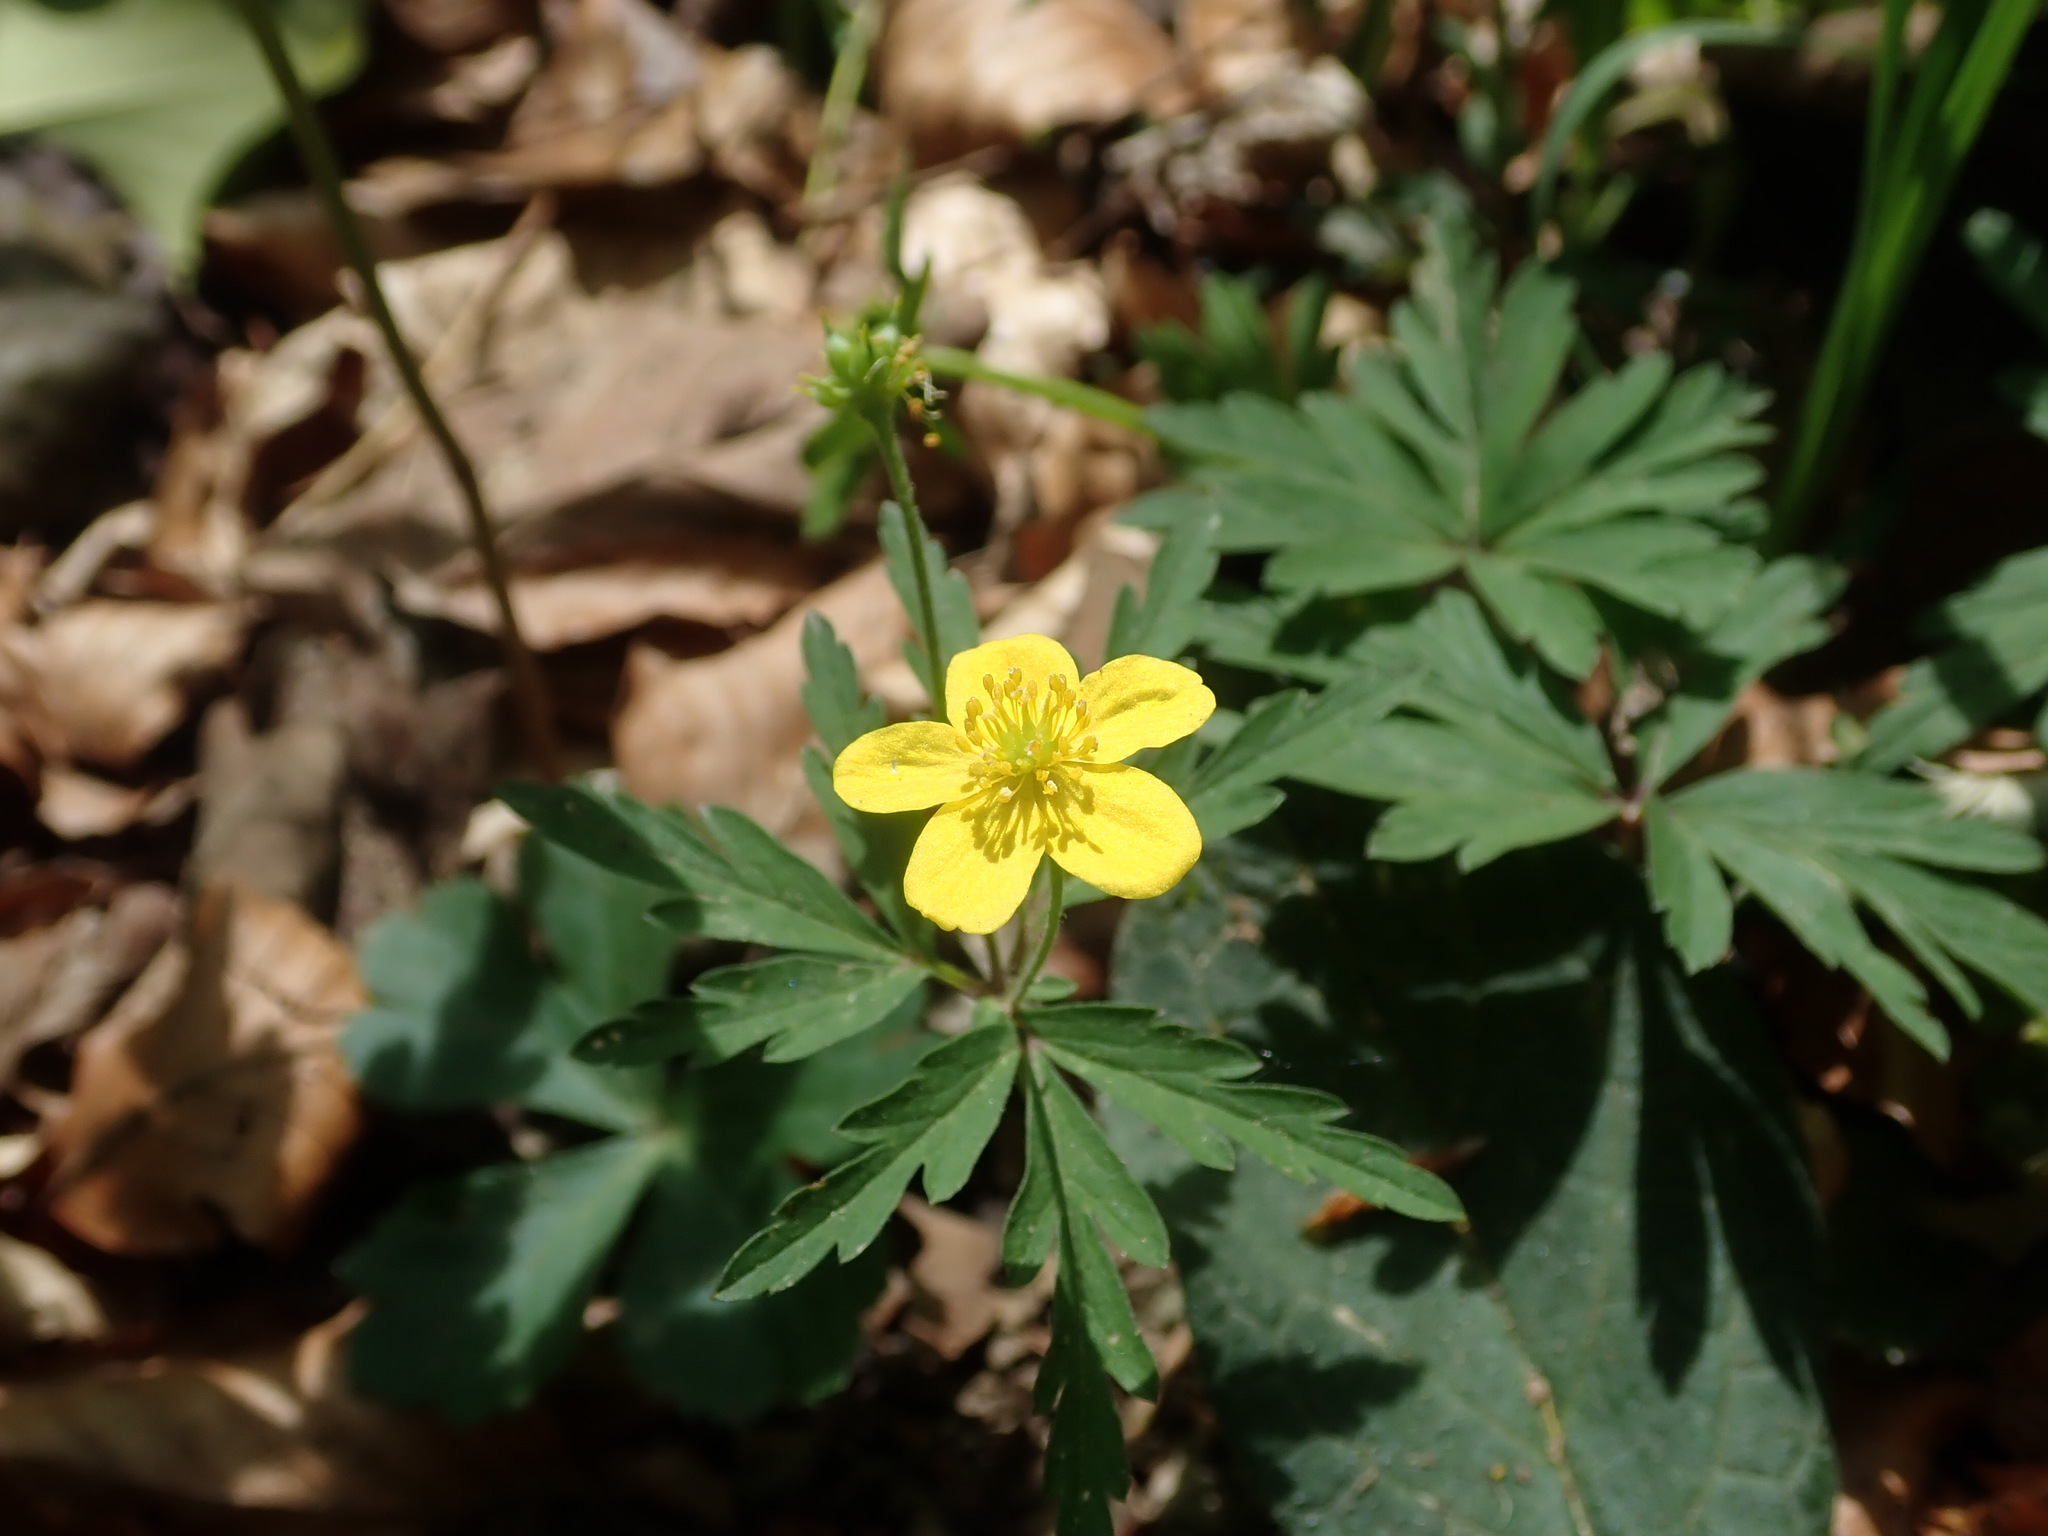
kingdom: Plantae
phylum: Tracheophyta
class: Magnoliopsida
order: Ranunculales
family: Ranunculaceae
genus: Anemone
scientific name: Anemone ranunculoides
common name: Yellow anemone
